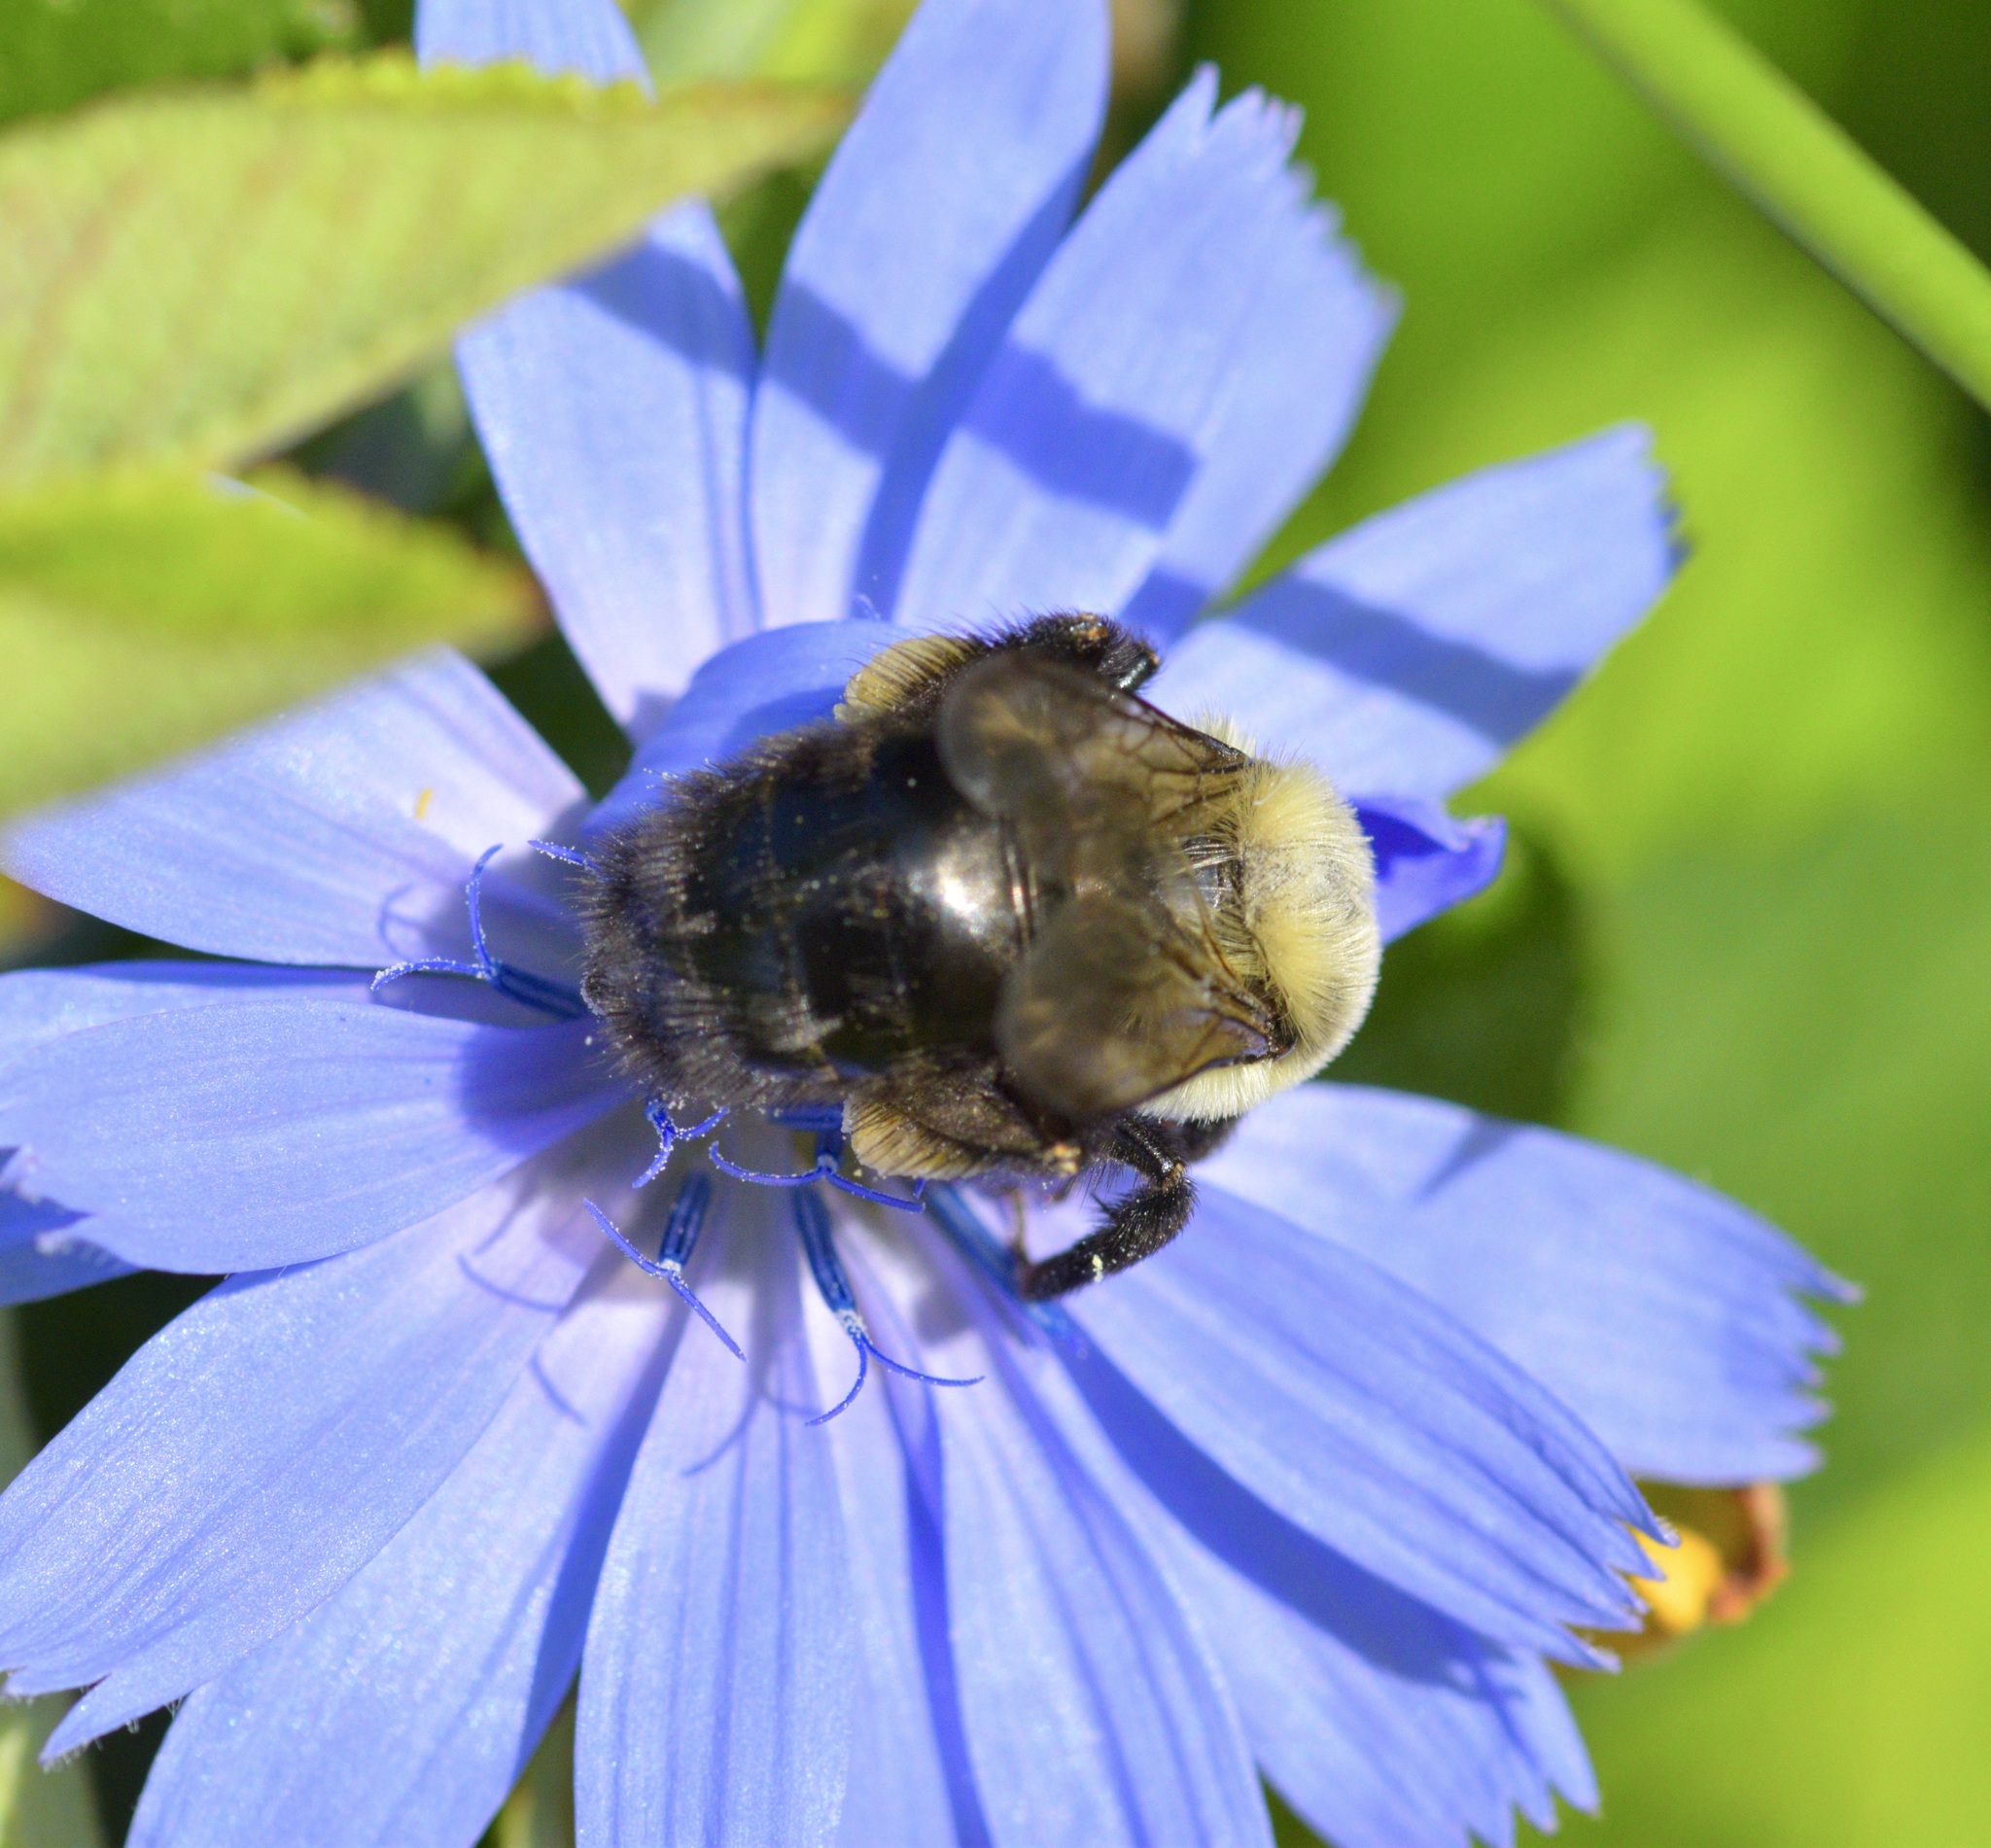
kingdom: Animalia
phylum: Arthropoda
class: Insecta
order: Hymenoptera
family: Apidae
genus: Bombus
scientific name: Bombus impatiens
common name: Common eastern bumble bee
